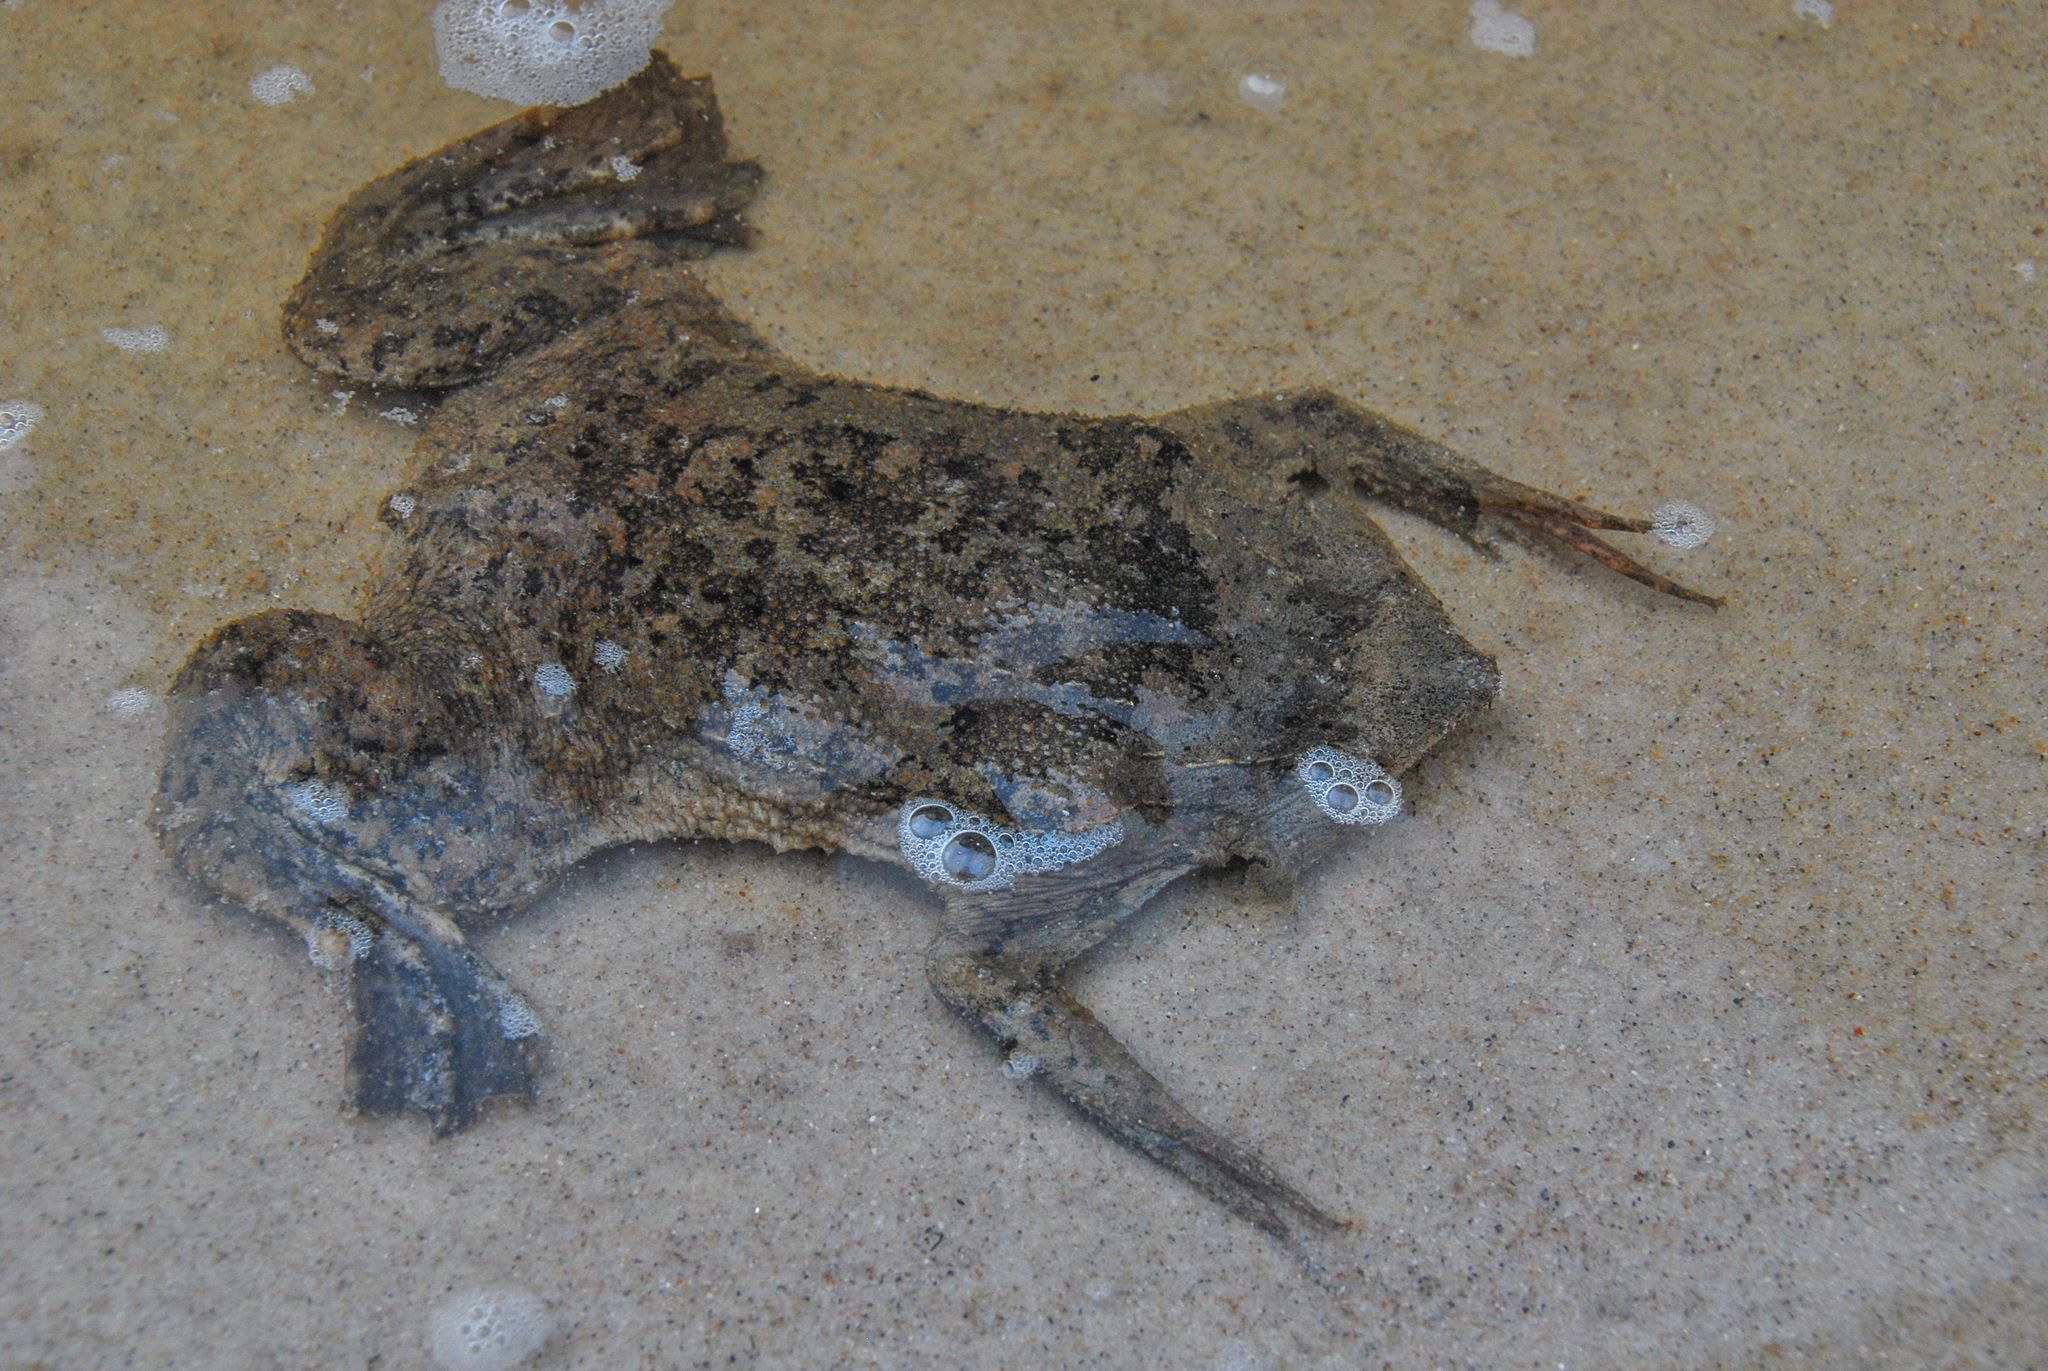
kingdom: Animalia
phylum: Chordata
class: Amphibia
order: Anura
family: Pipidae
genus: Pipa
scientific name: Pipa pipa
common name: Surinam toad
